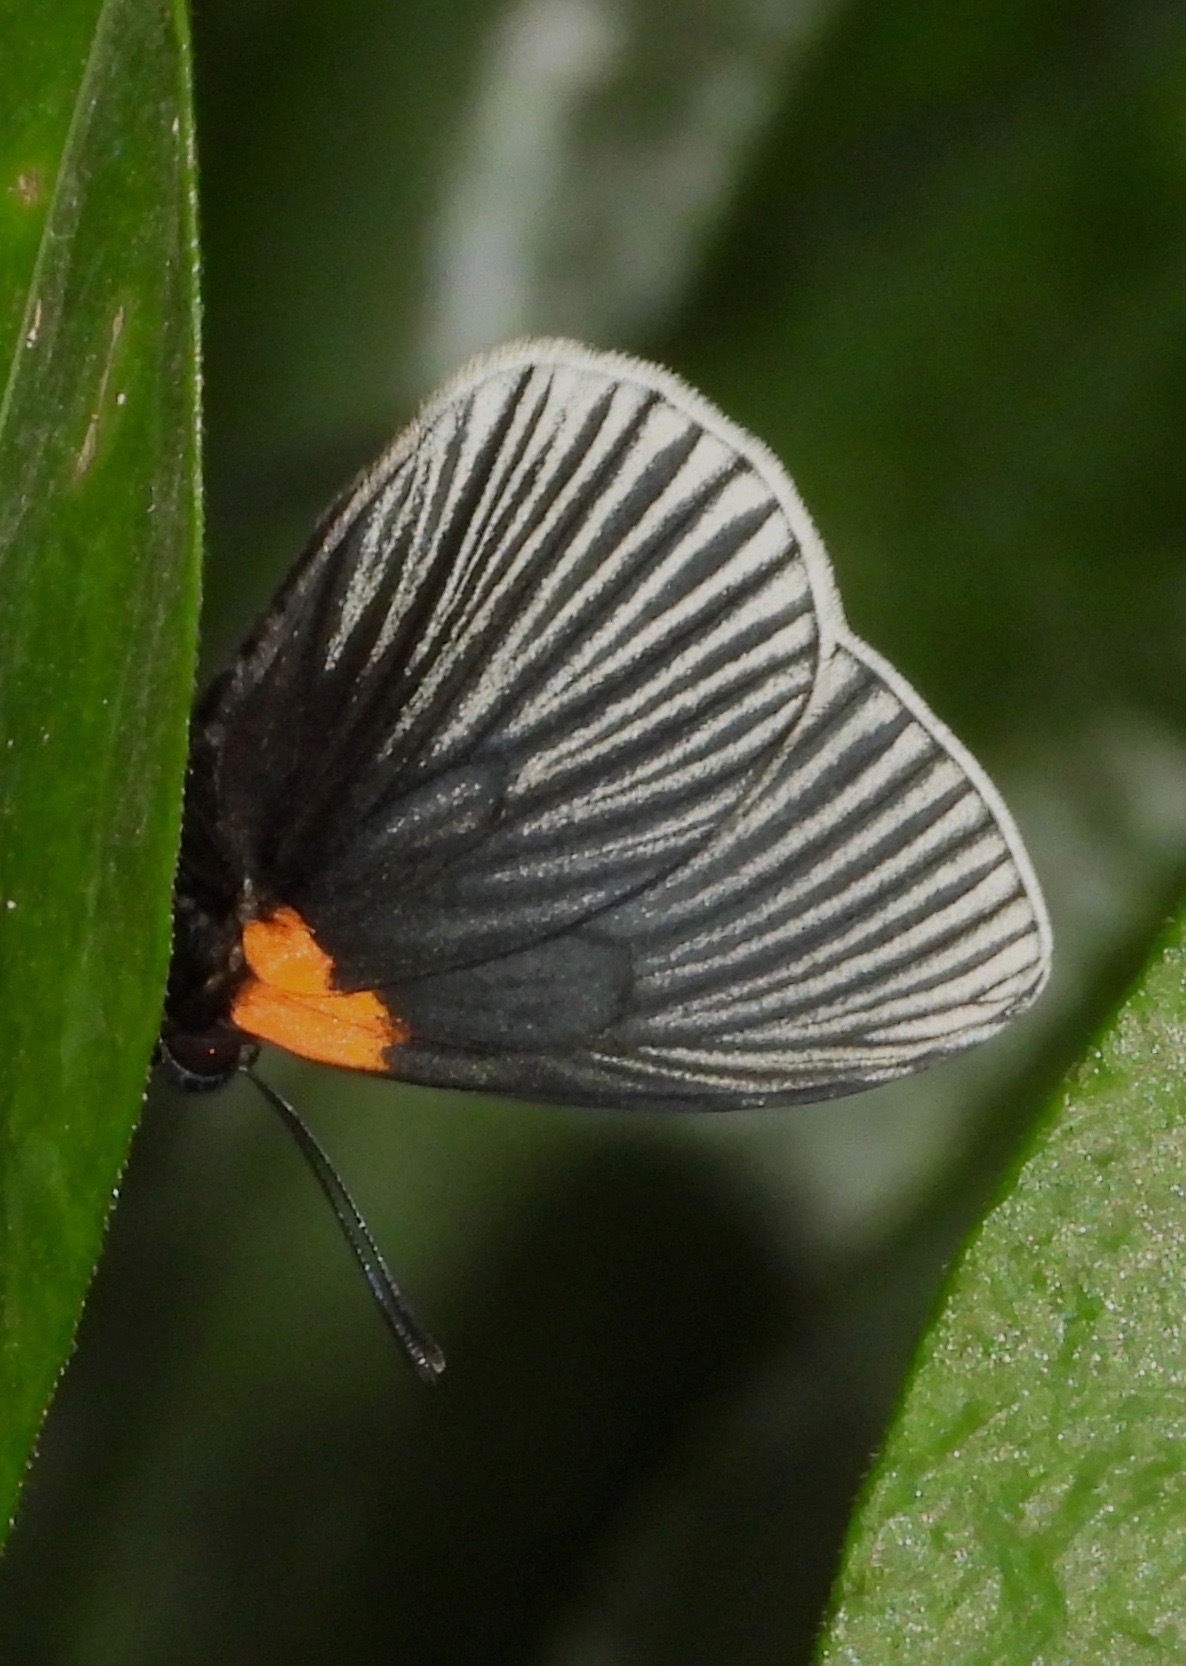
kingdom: Animalia
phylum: Arthropoda
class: Insecta
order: Lepidoptera
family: Riodinidae
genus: Hades
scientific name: Hades noctula
